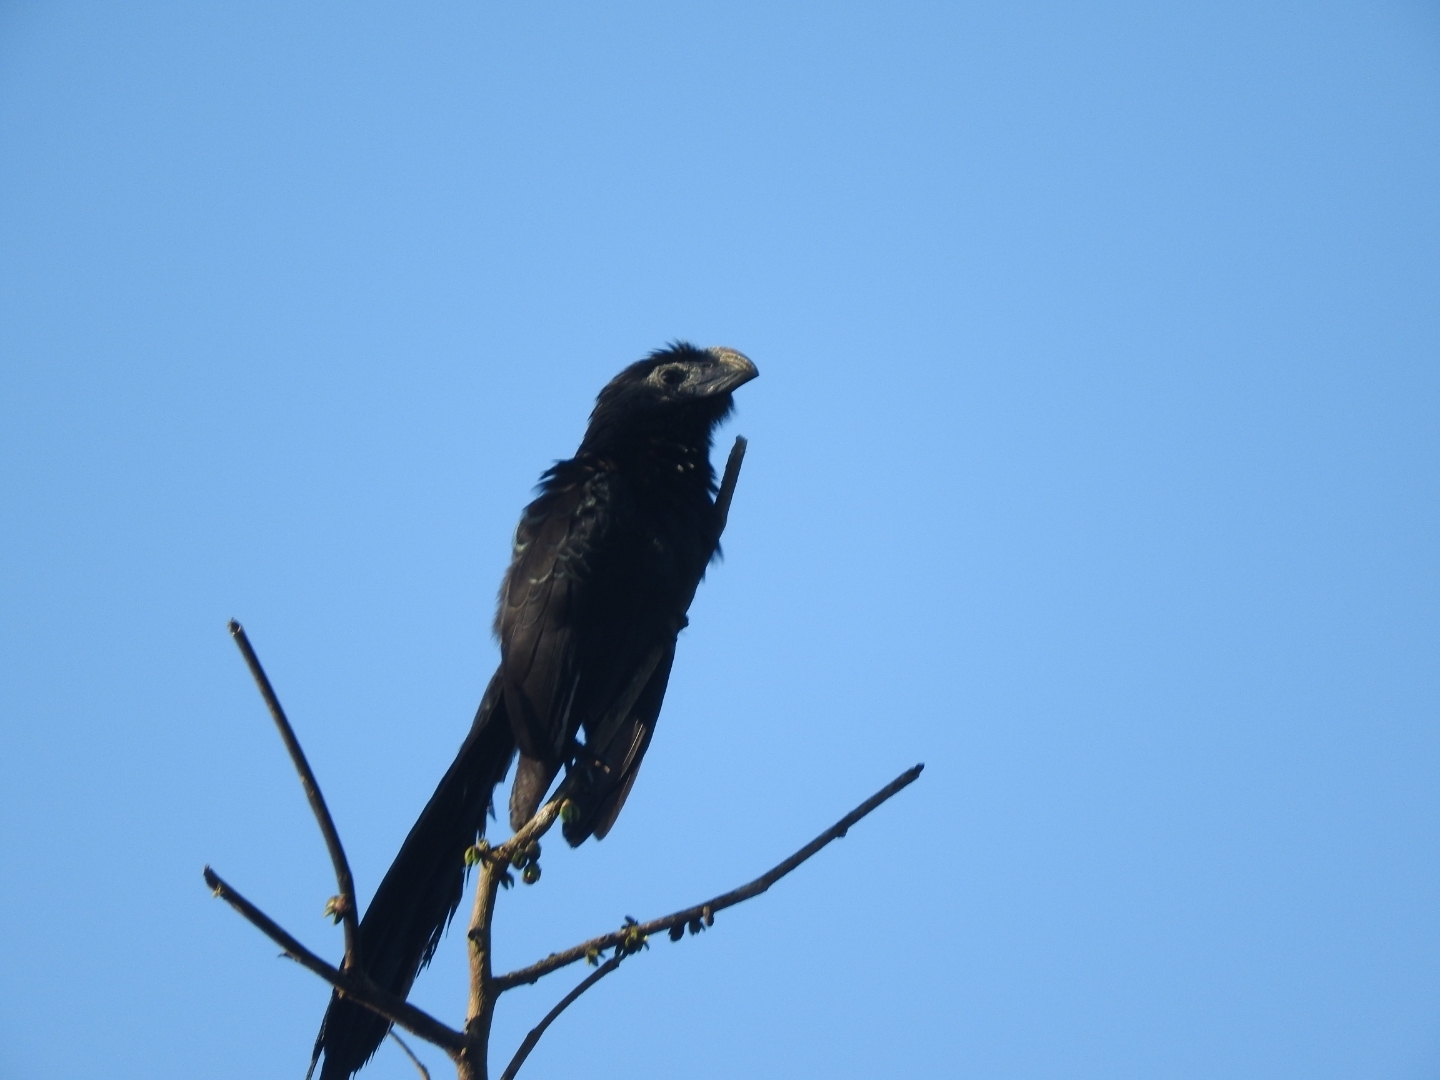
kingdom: Animalia
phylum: Chordata
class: Aves
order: Cuculiformes
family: Cuculidae
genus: Crotophaga
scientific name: Crotophaga sulcirostris
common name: Groove-billed ani
